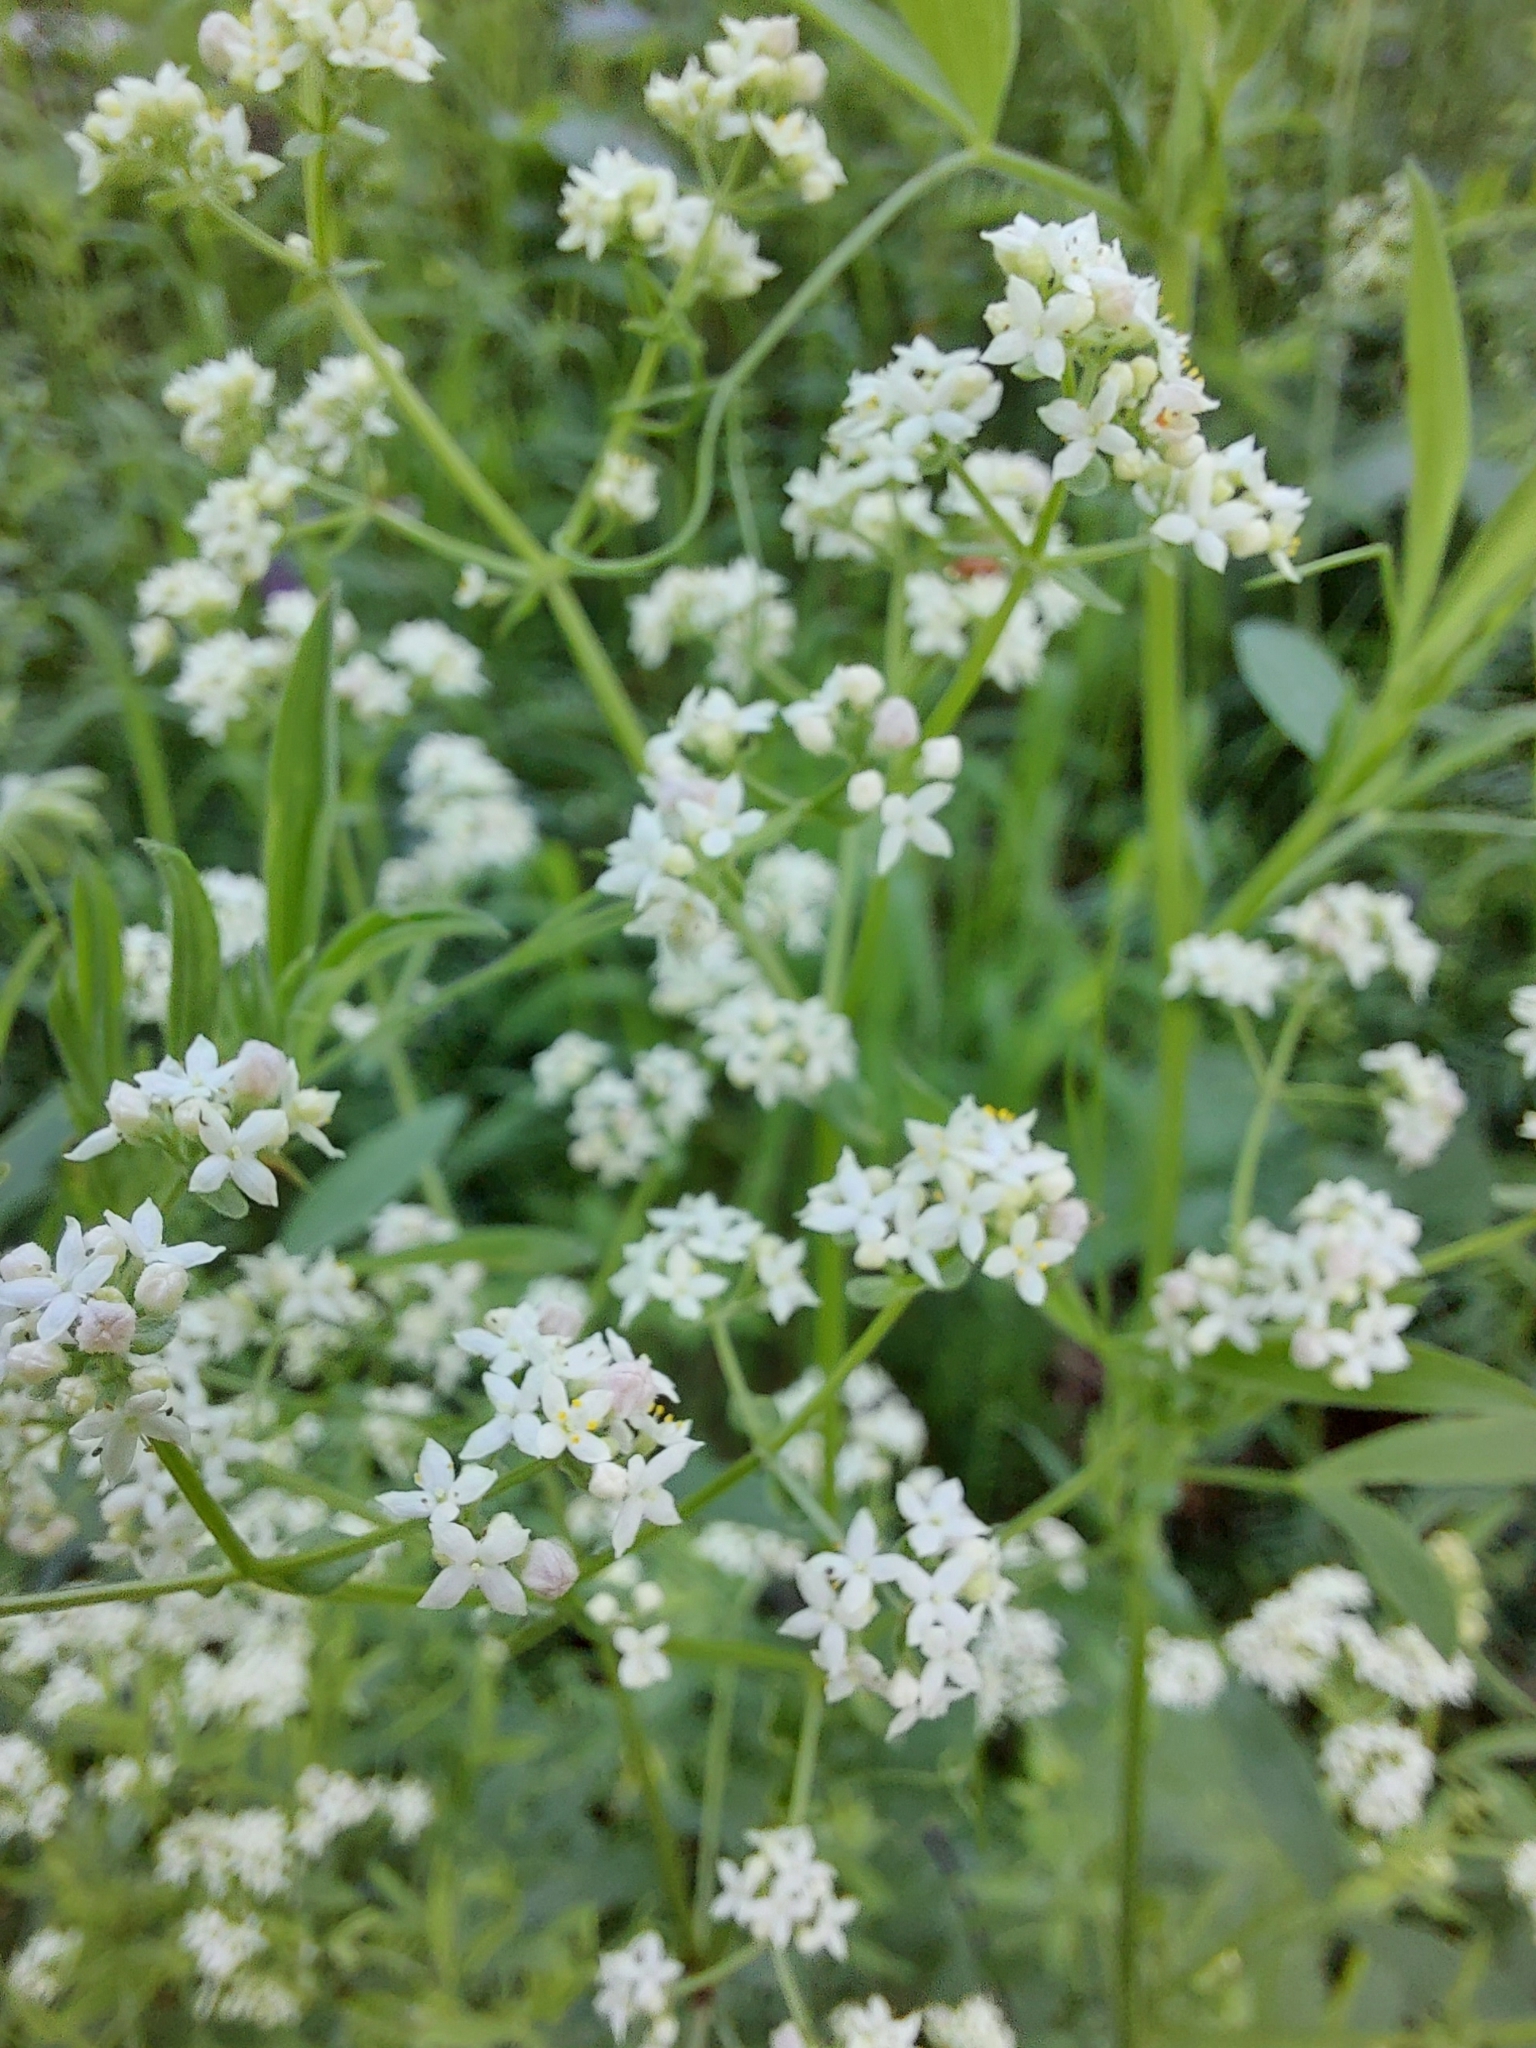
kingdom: Plantae
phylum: Tracheophyta
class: Magnoliopsida
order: Gentianales
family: Rubiaceae
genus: Galium
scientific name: Galium boreale
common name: Northern bedstraw
